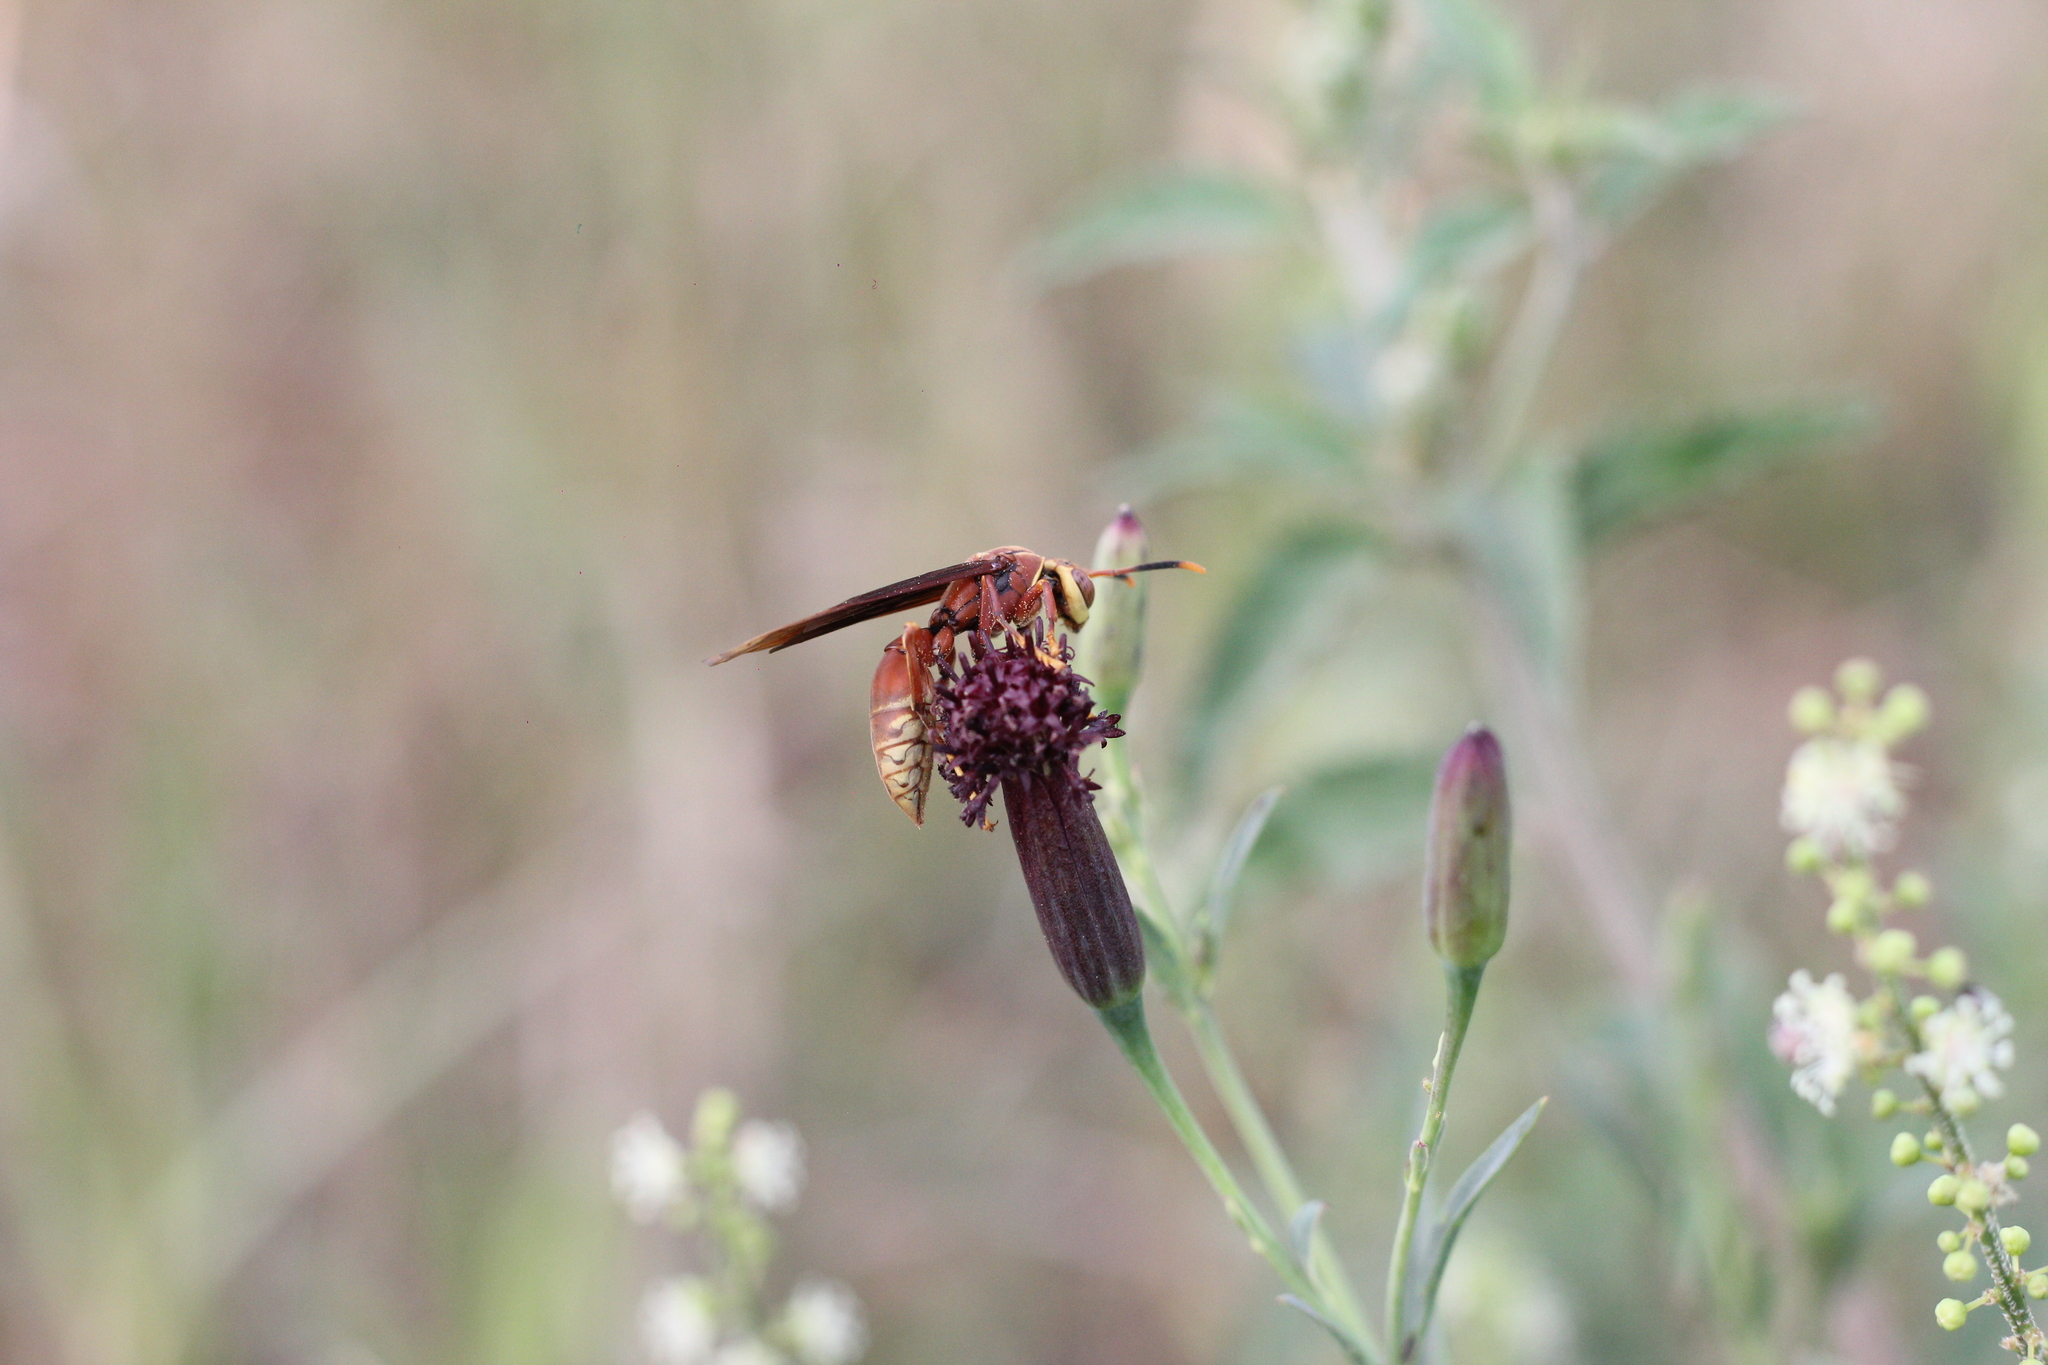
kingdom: Animalia
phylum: Arthropoda
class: Insecta
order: Hymenoptera
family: Eumenidae
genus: Polistes
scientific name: Polistes cavapyta
